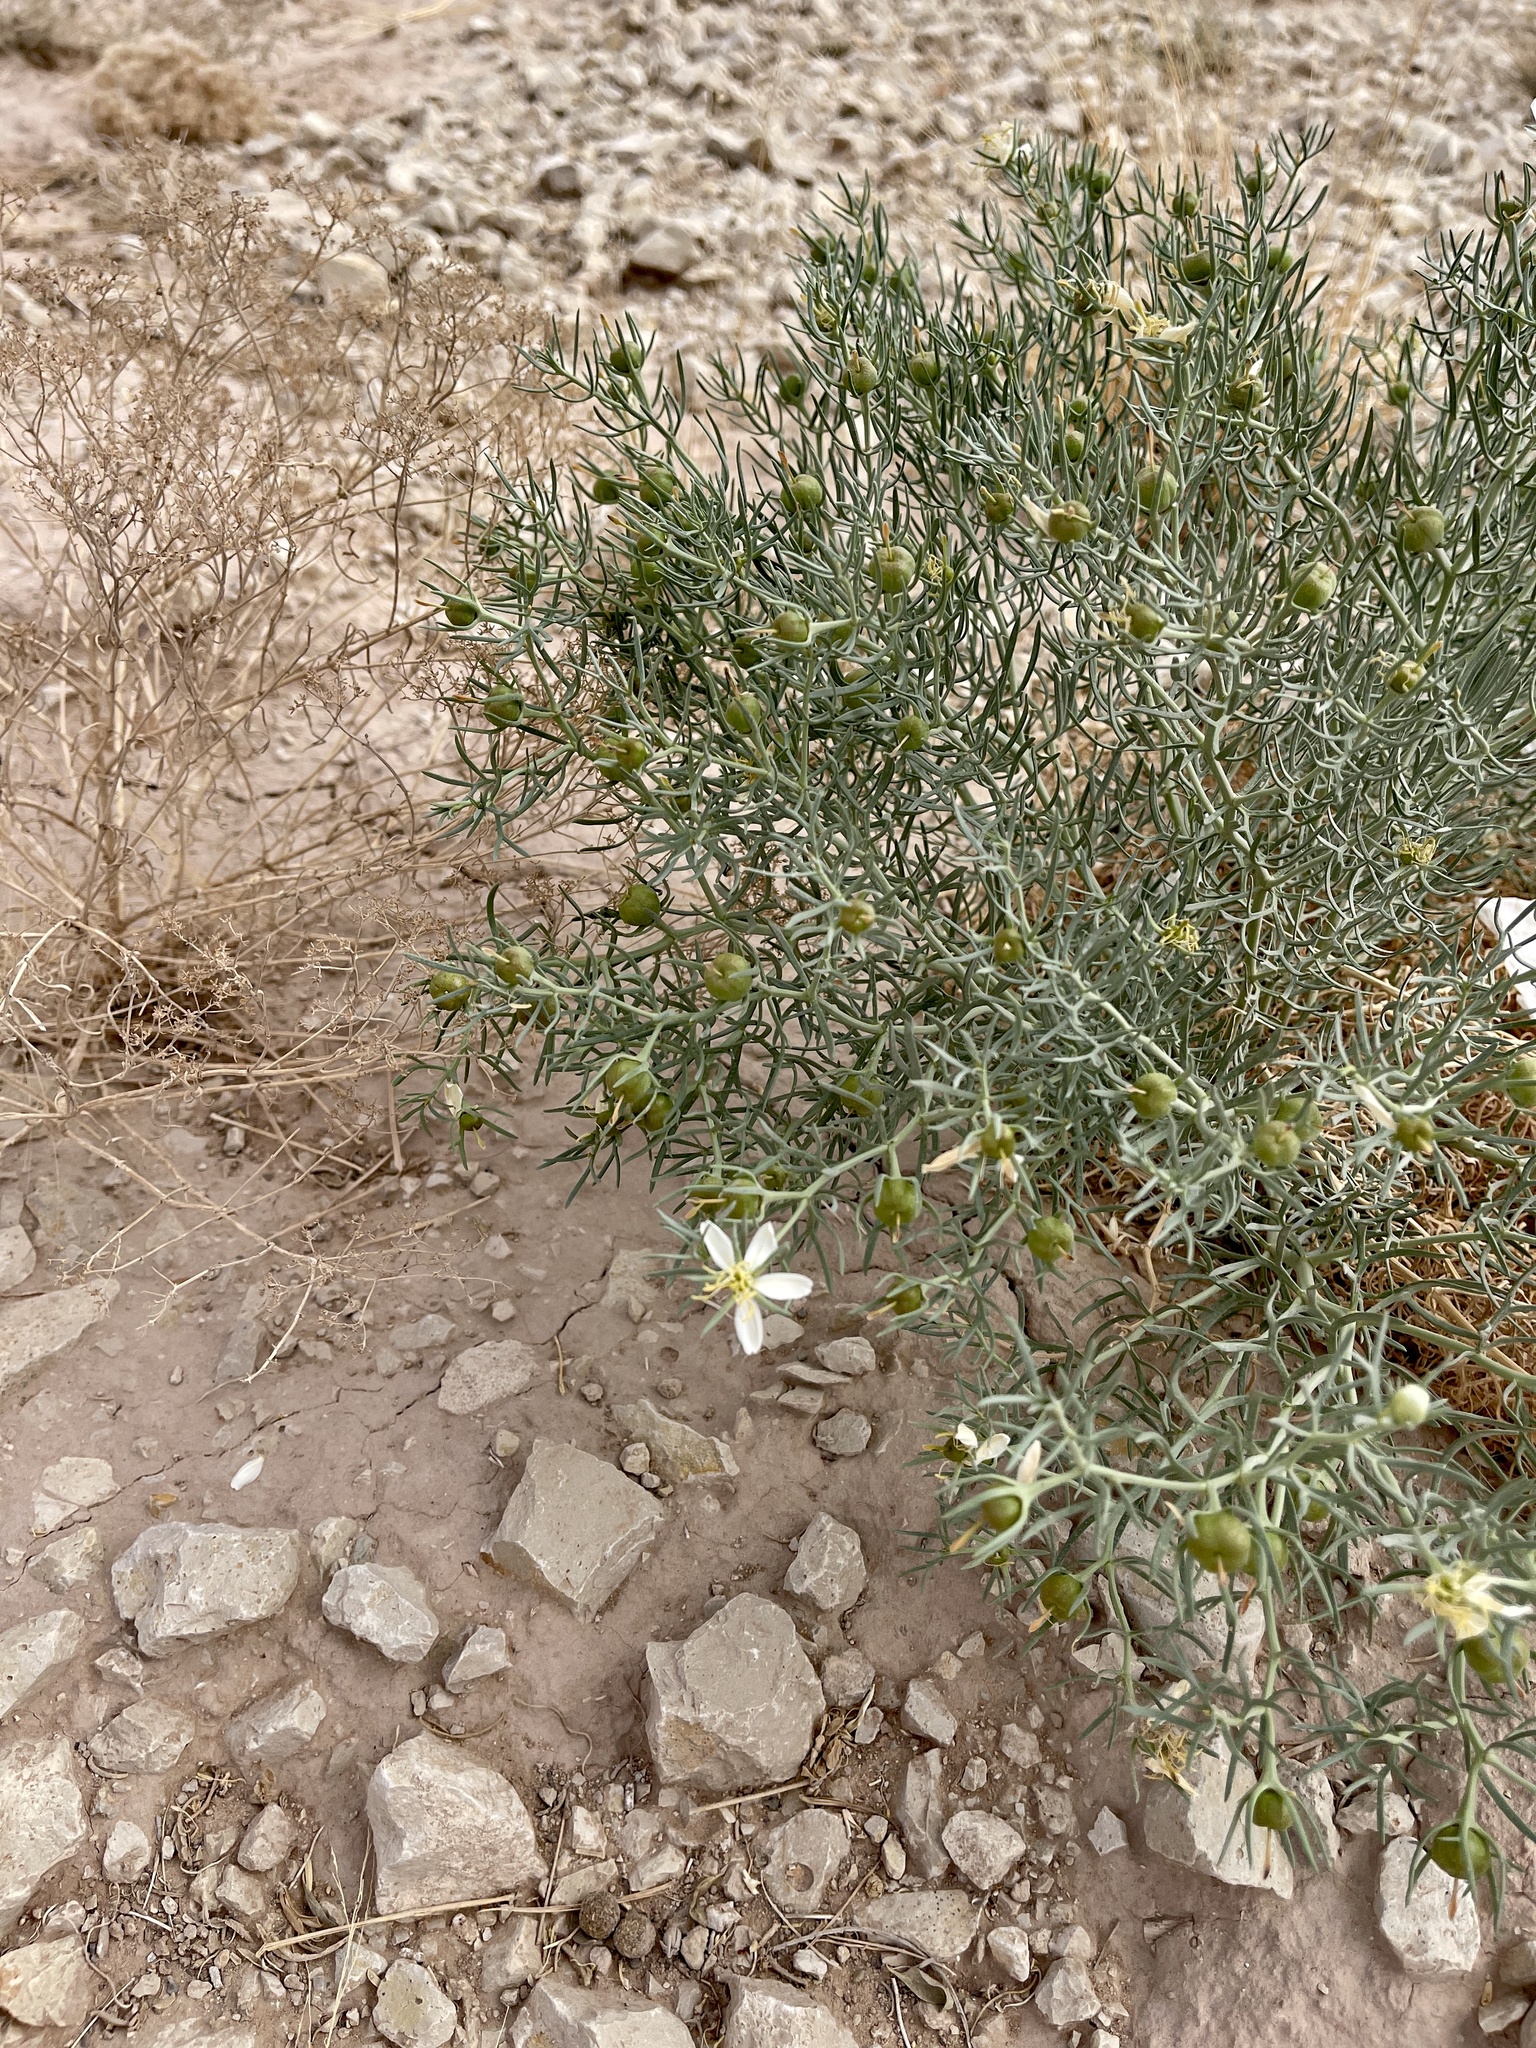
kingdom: Plantae
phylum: Tracheophyta
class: Magnoliopsida
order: Sapindales
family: Tetradiclidaceae
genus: Peganum
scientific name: Peganum harmala
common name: Harmal peganum
